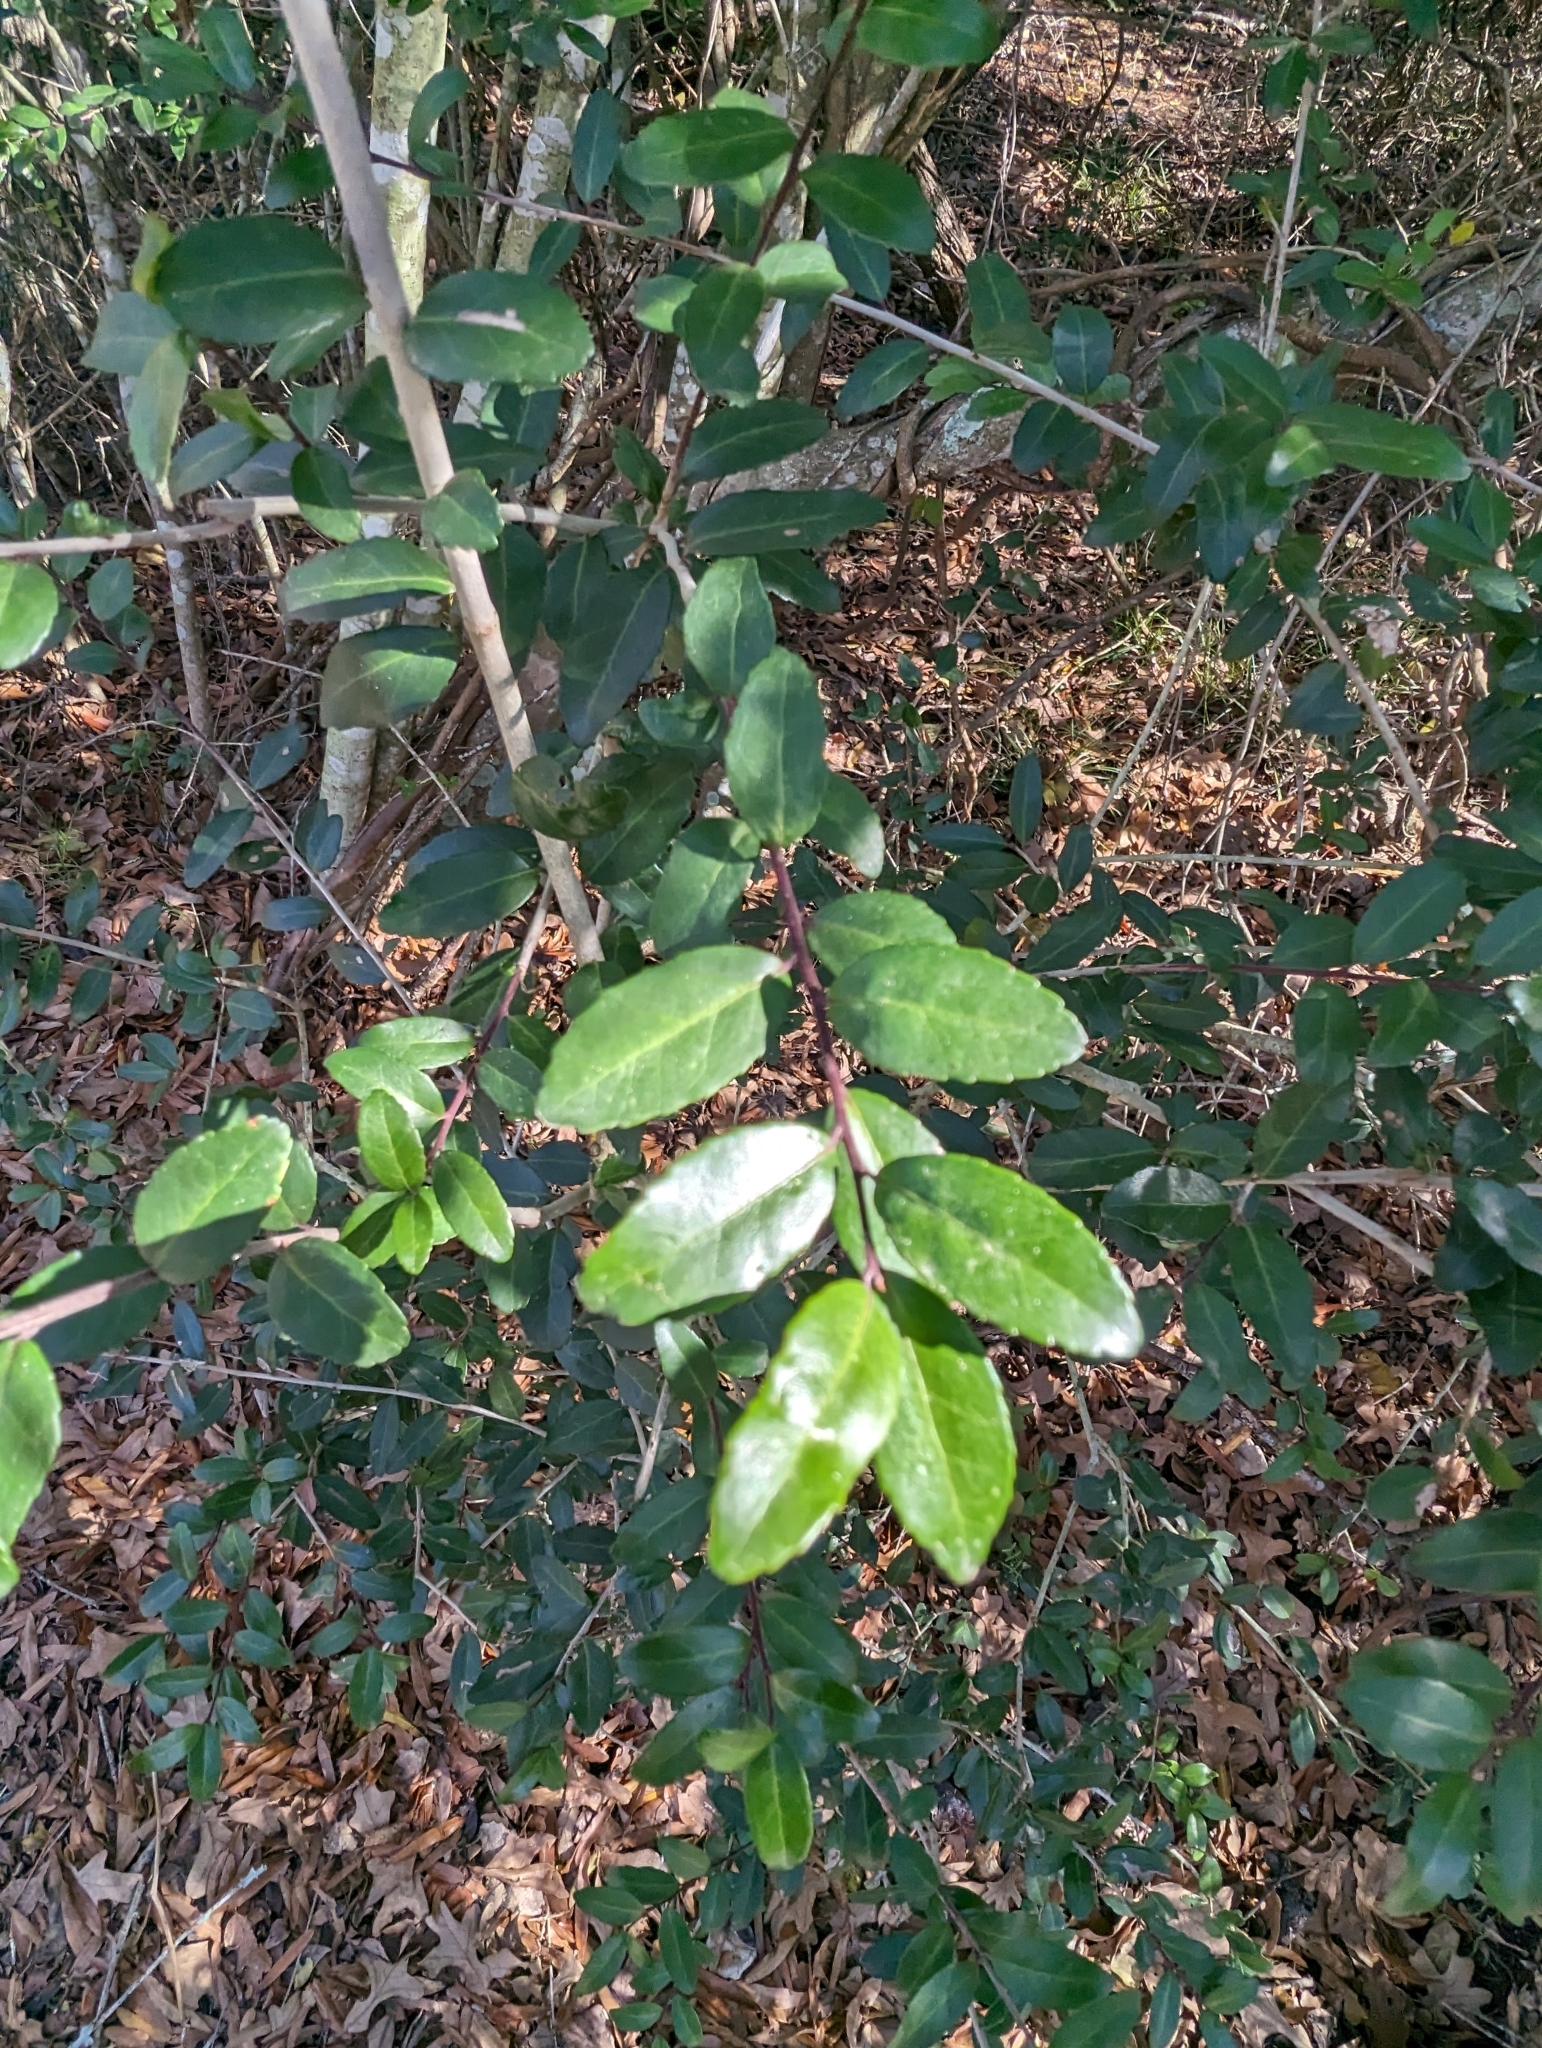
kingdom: Plantae
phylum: Tracheophyta
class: Magnoliopsida
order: Aquifoliales
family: Aquifoliaceae
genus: Ilex
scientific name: Ilex vomitoria
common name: Yaupon holly
